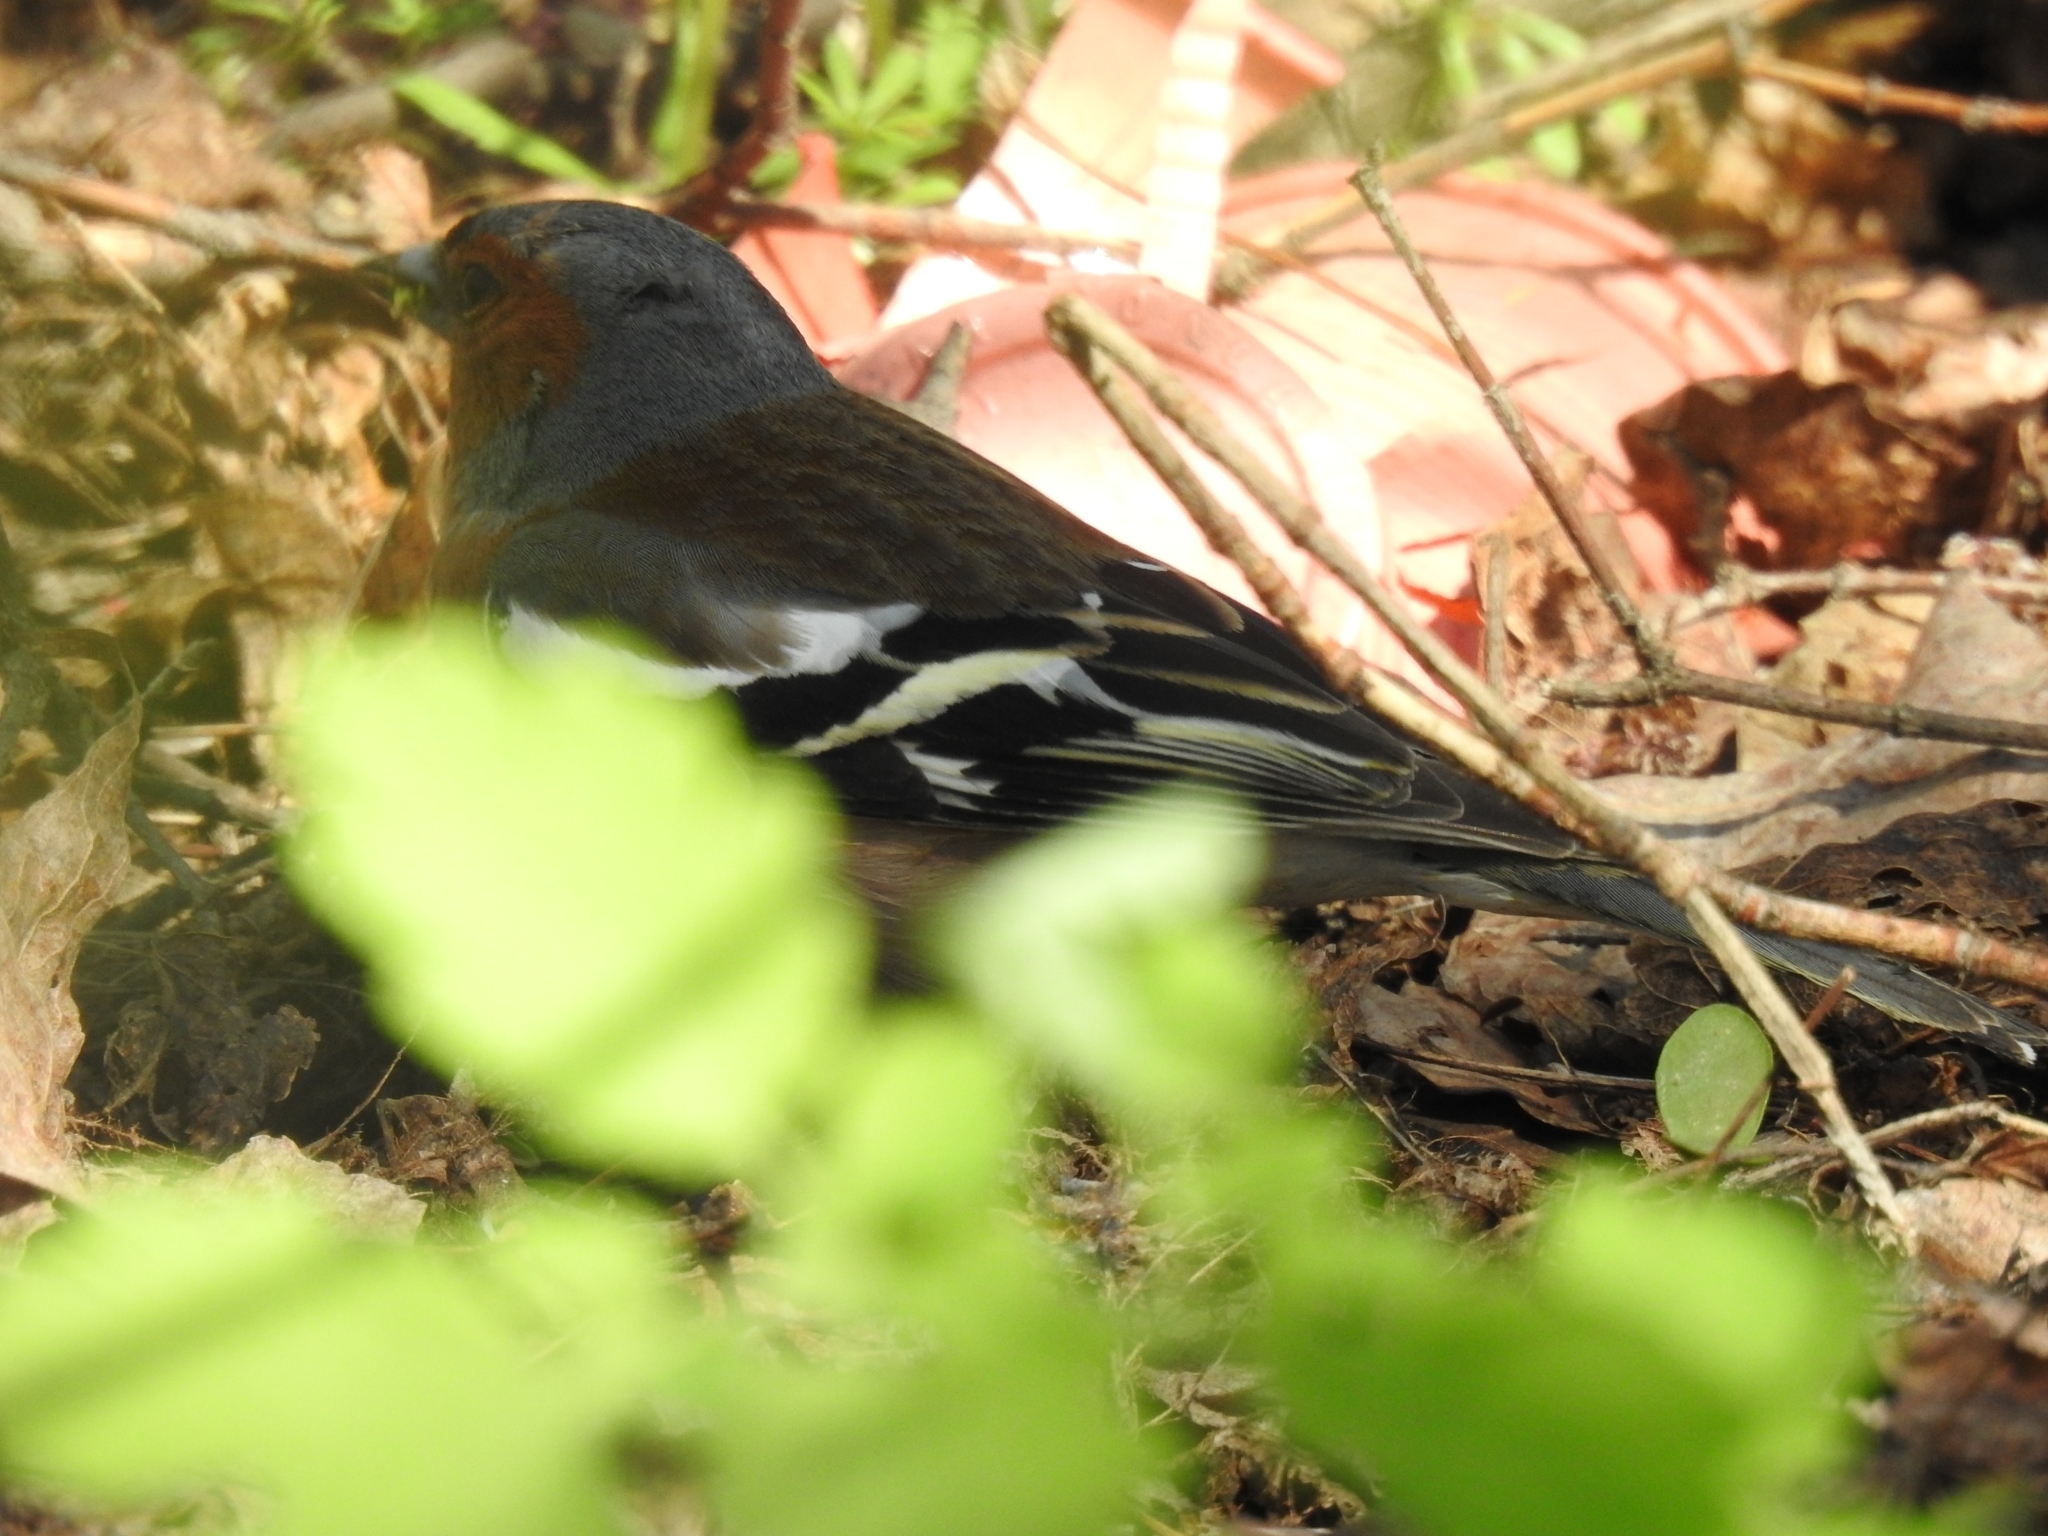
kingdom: Animalia
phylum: Chordata
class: Aves
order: Passeriformes
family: Fringillidae
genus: Fringilla
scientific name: Fringilla coelebs
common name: Common chaffinch
